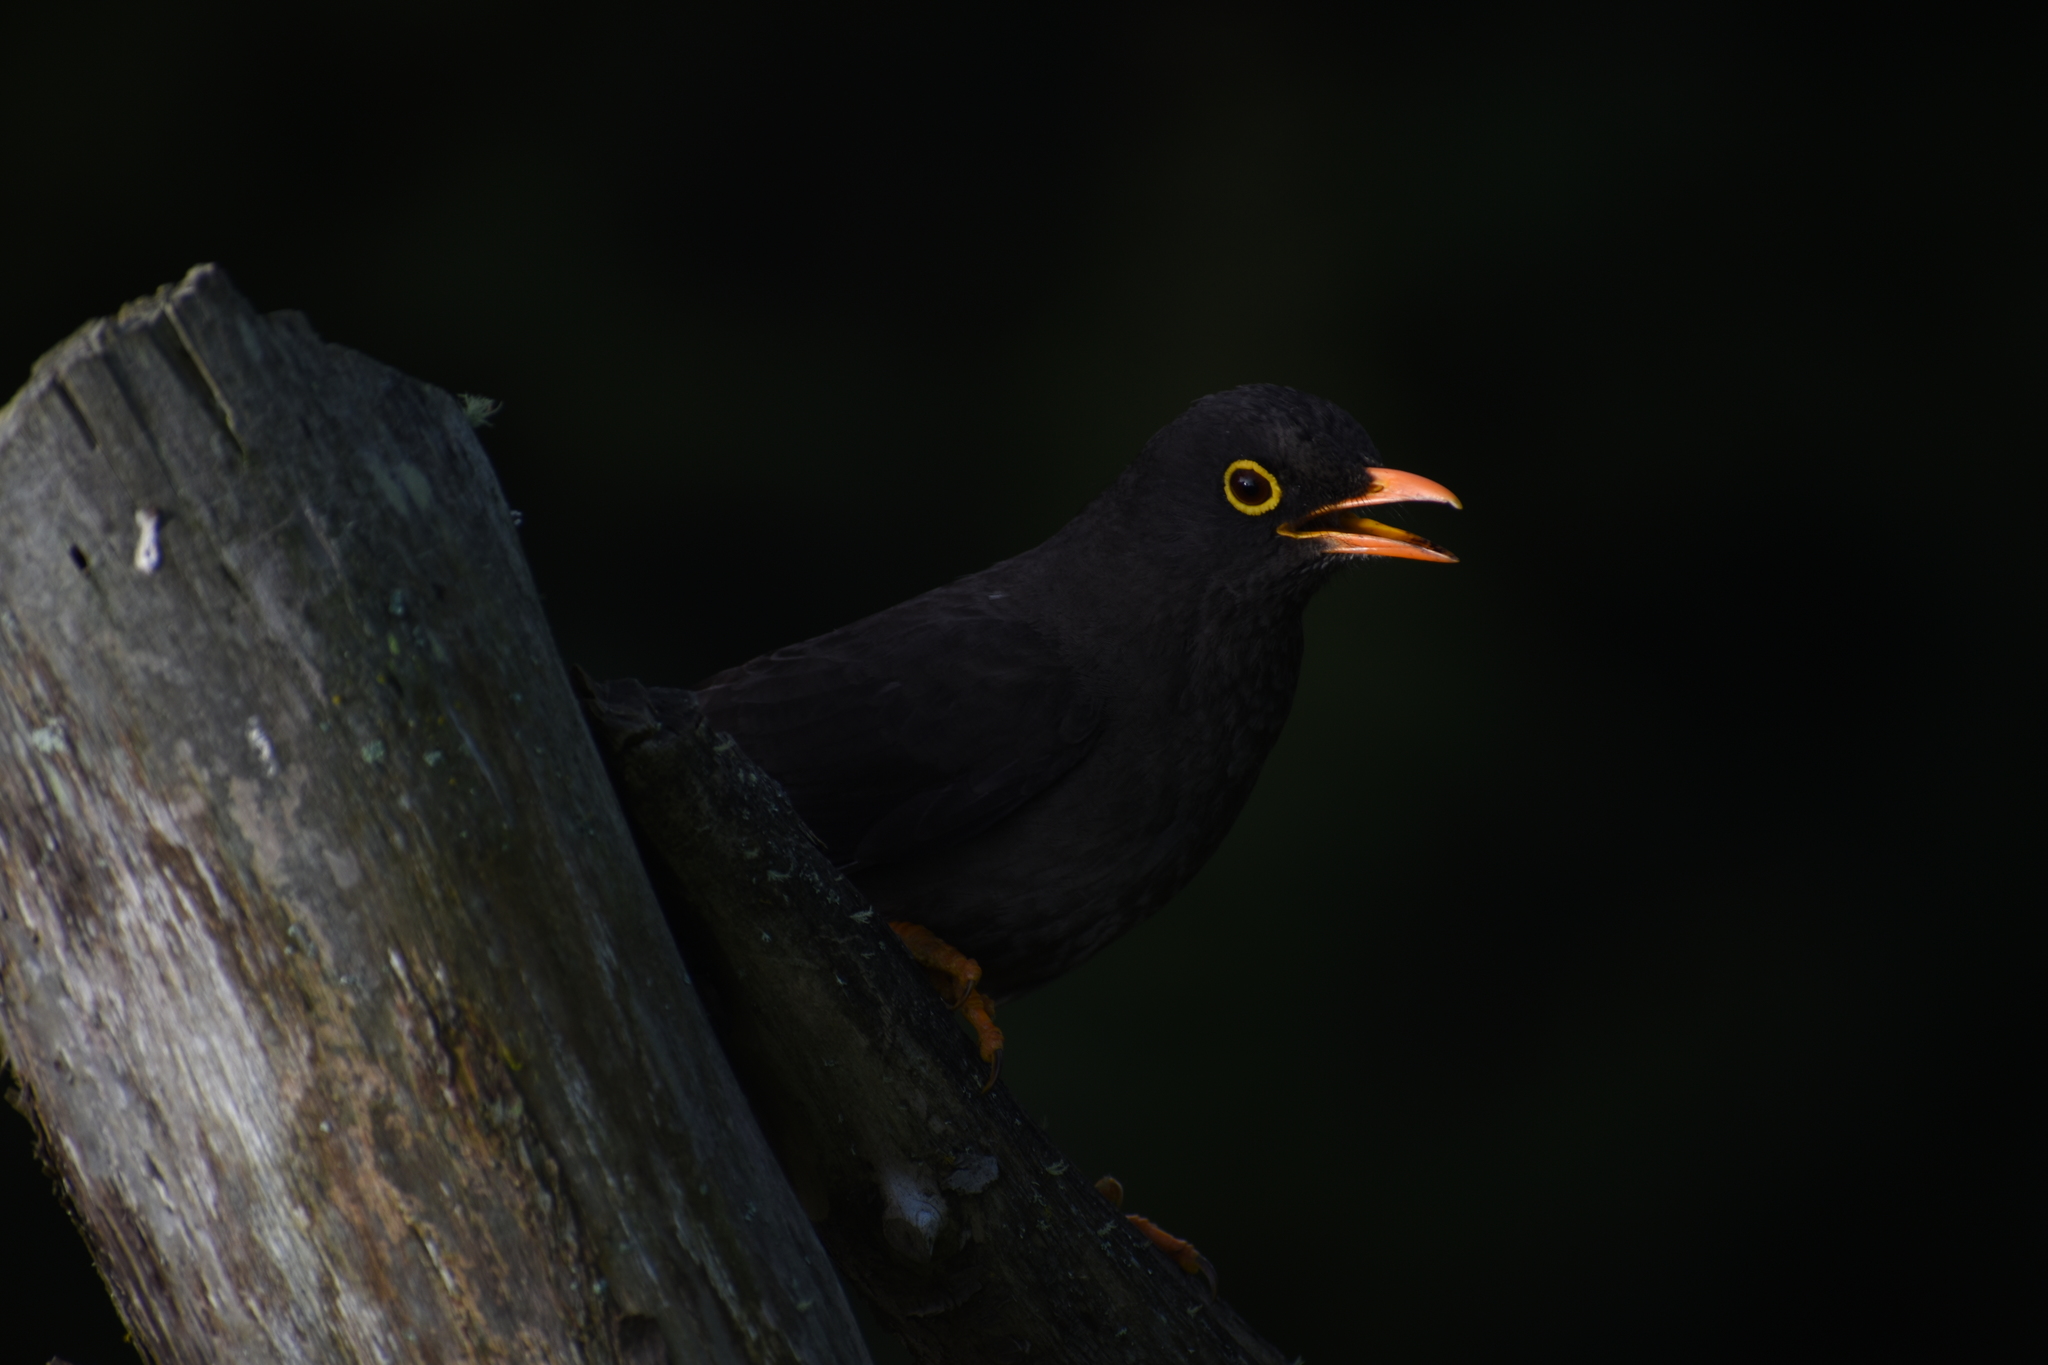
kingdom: Animalia
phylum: Chordata
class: Aves
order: Passeriformes
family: Turdidae
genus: Turdus
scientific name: Turdus fuscater
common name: Great thrush
